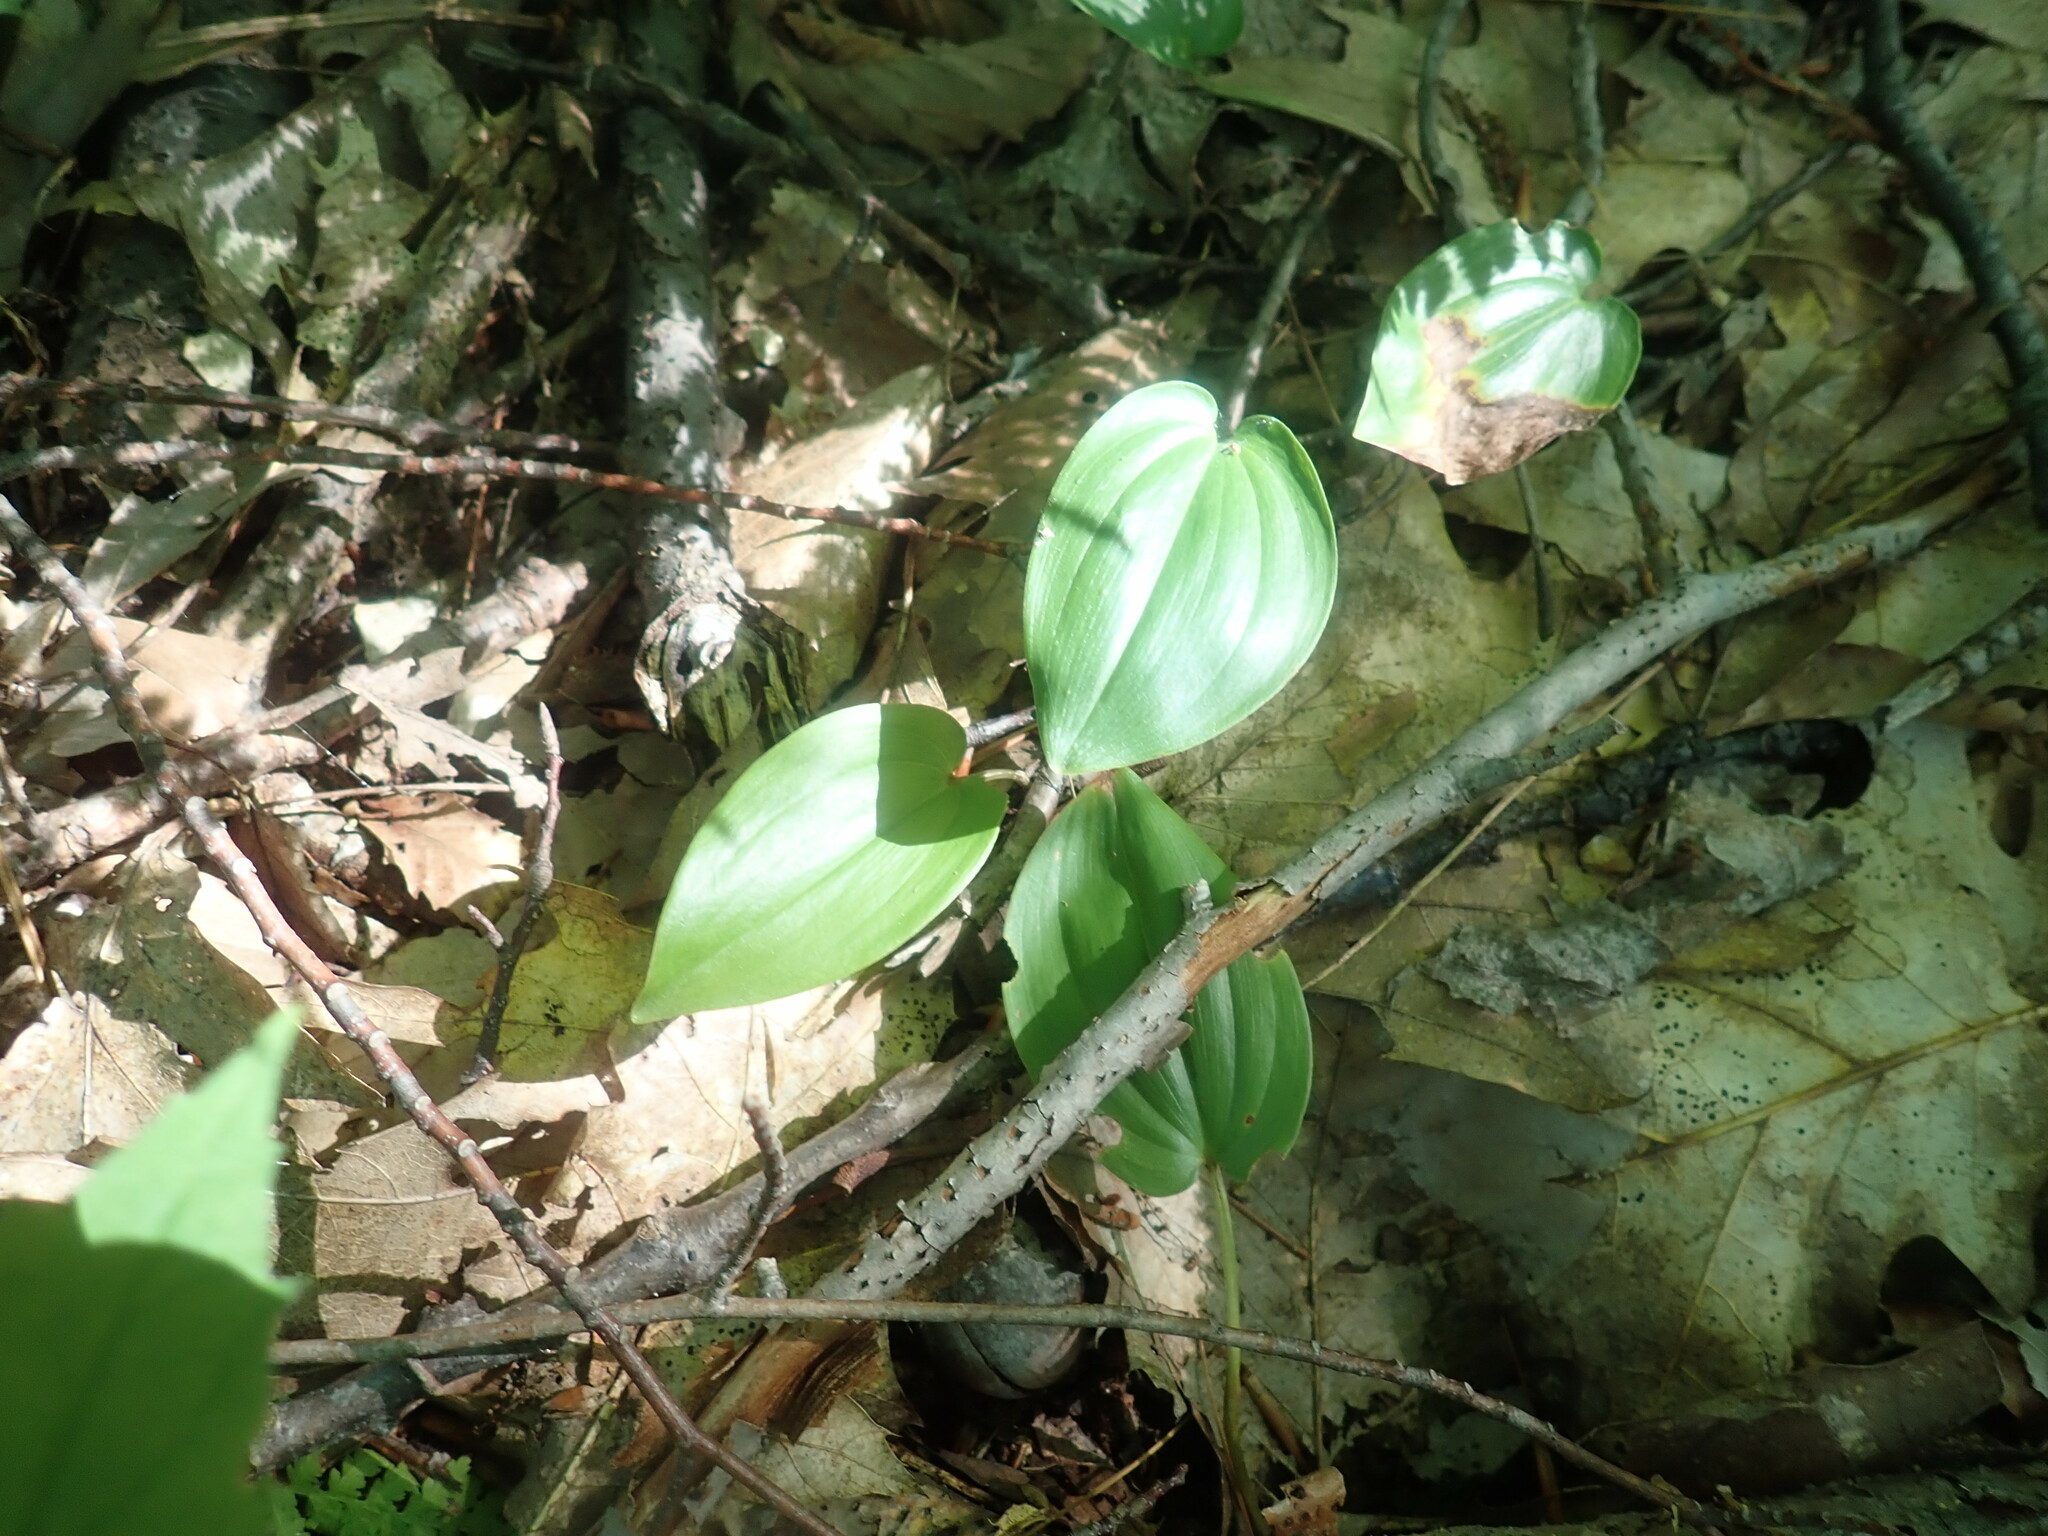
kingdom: Plantae
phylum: Tracheophyta
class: Liliopsida
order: Asparagales
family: Asparagaceae
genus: Maianthemum
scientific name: Maianthemum canadense
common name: False lily-of-the-valley
